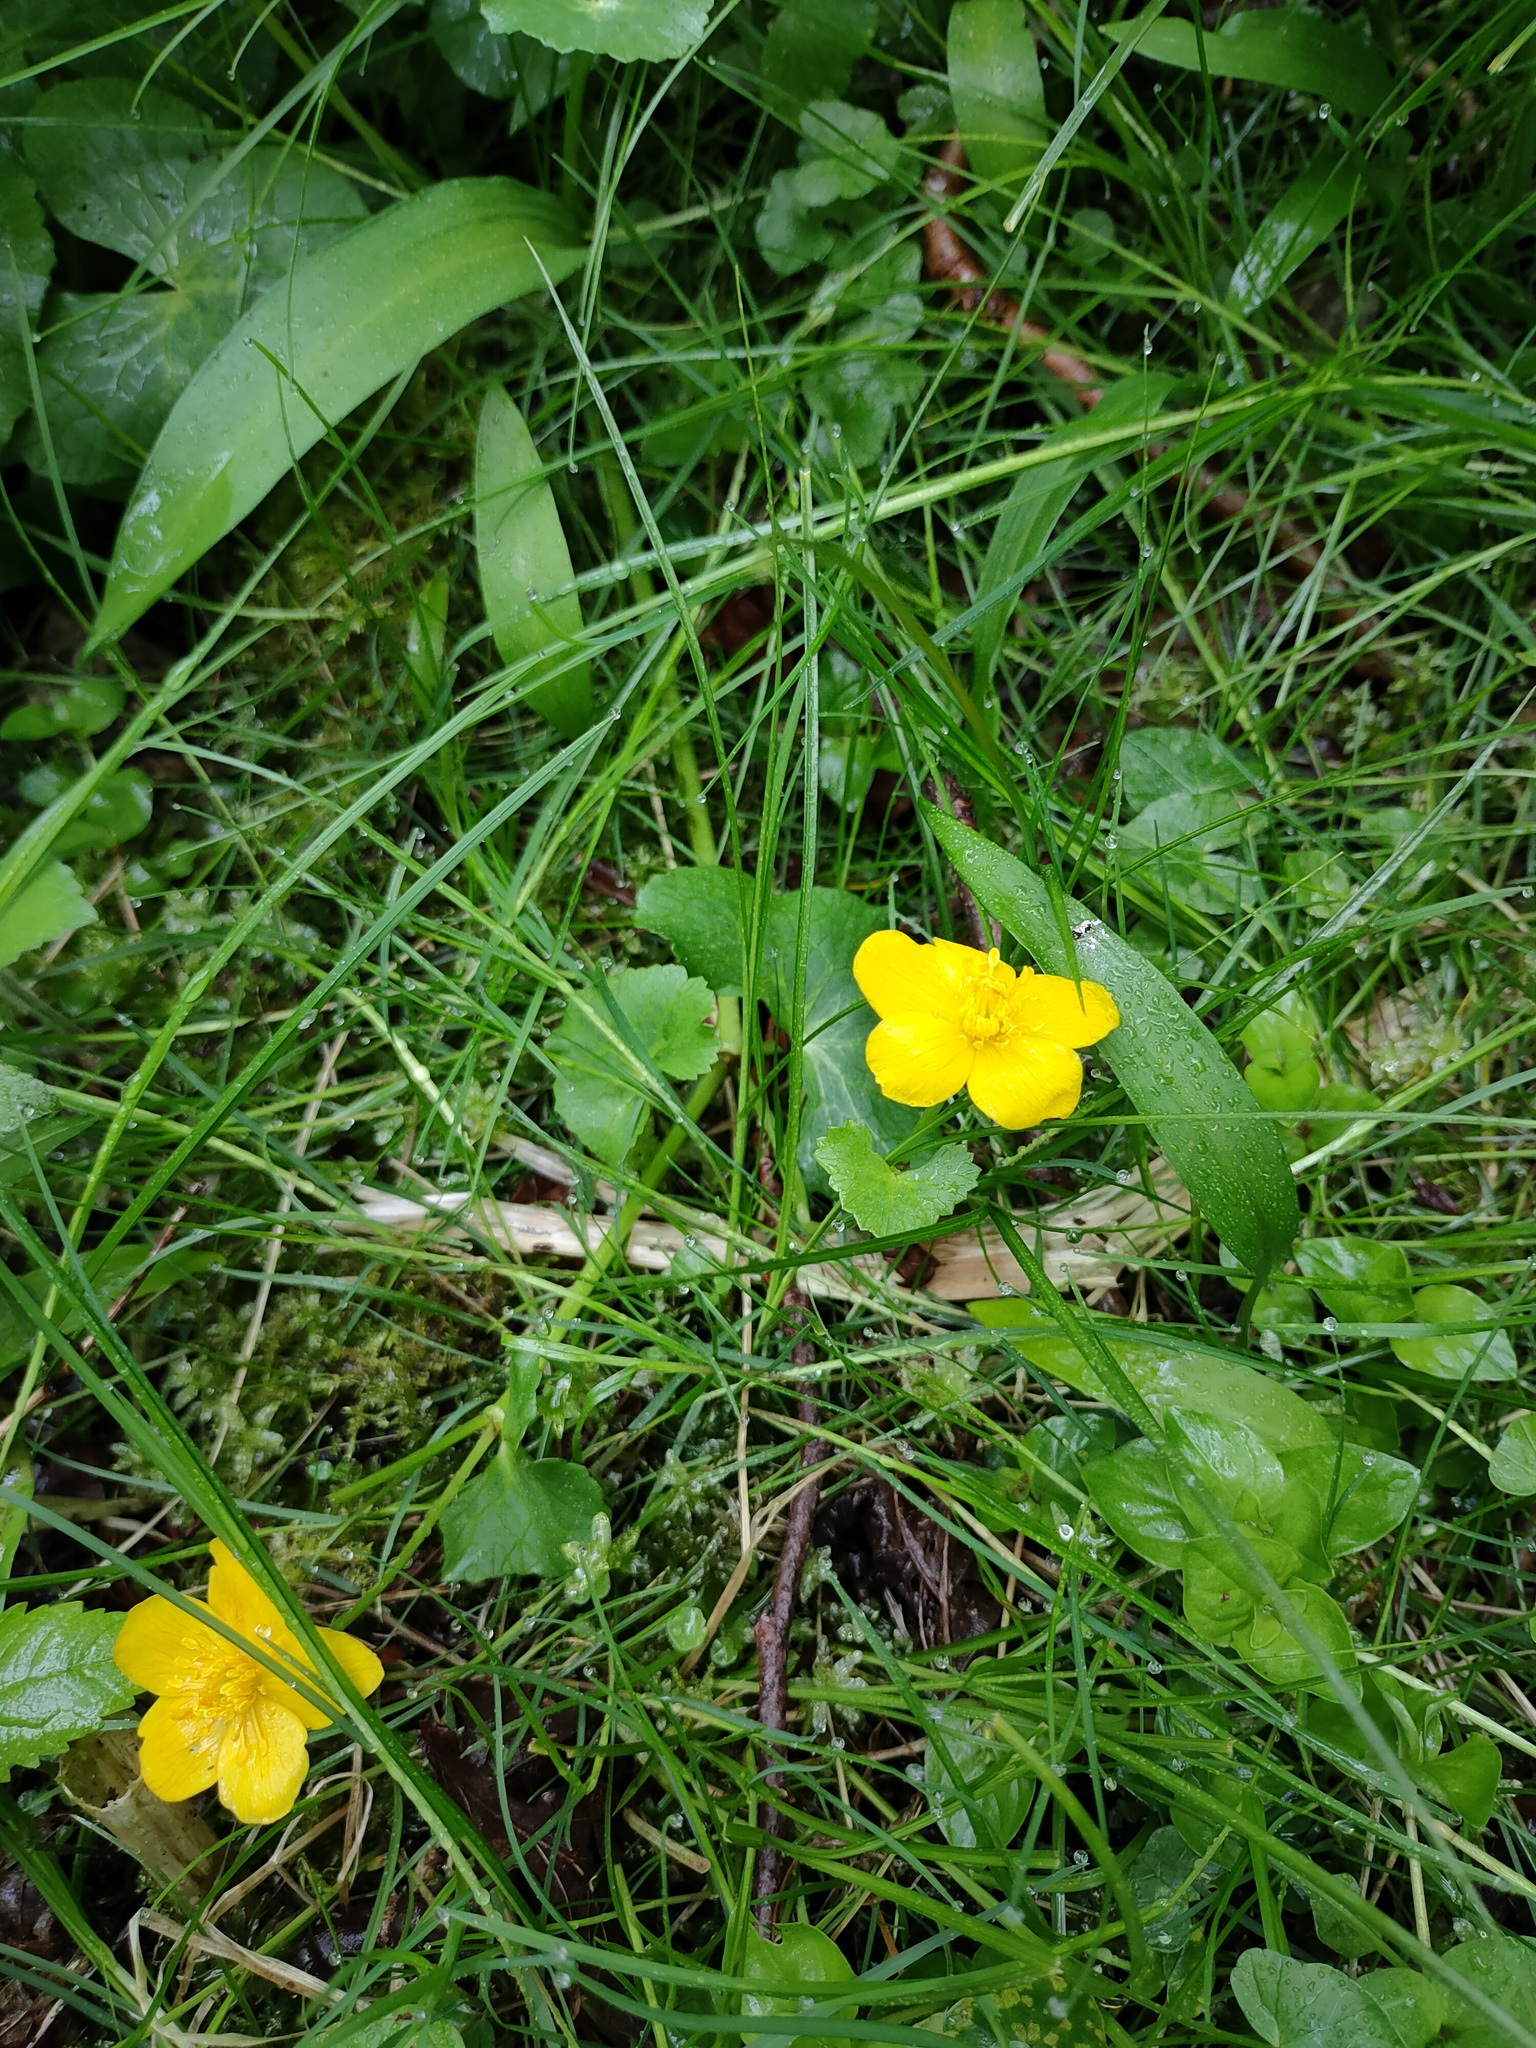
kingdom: Plantae
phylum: Tracheophyta
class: Magnoliopsida
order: Ranunculales
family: Ranunculaceae
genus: Caltha
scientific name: Caltha palustris
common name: Marsh marigold
